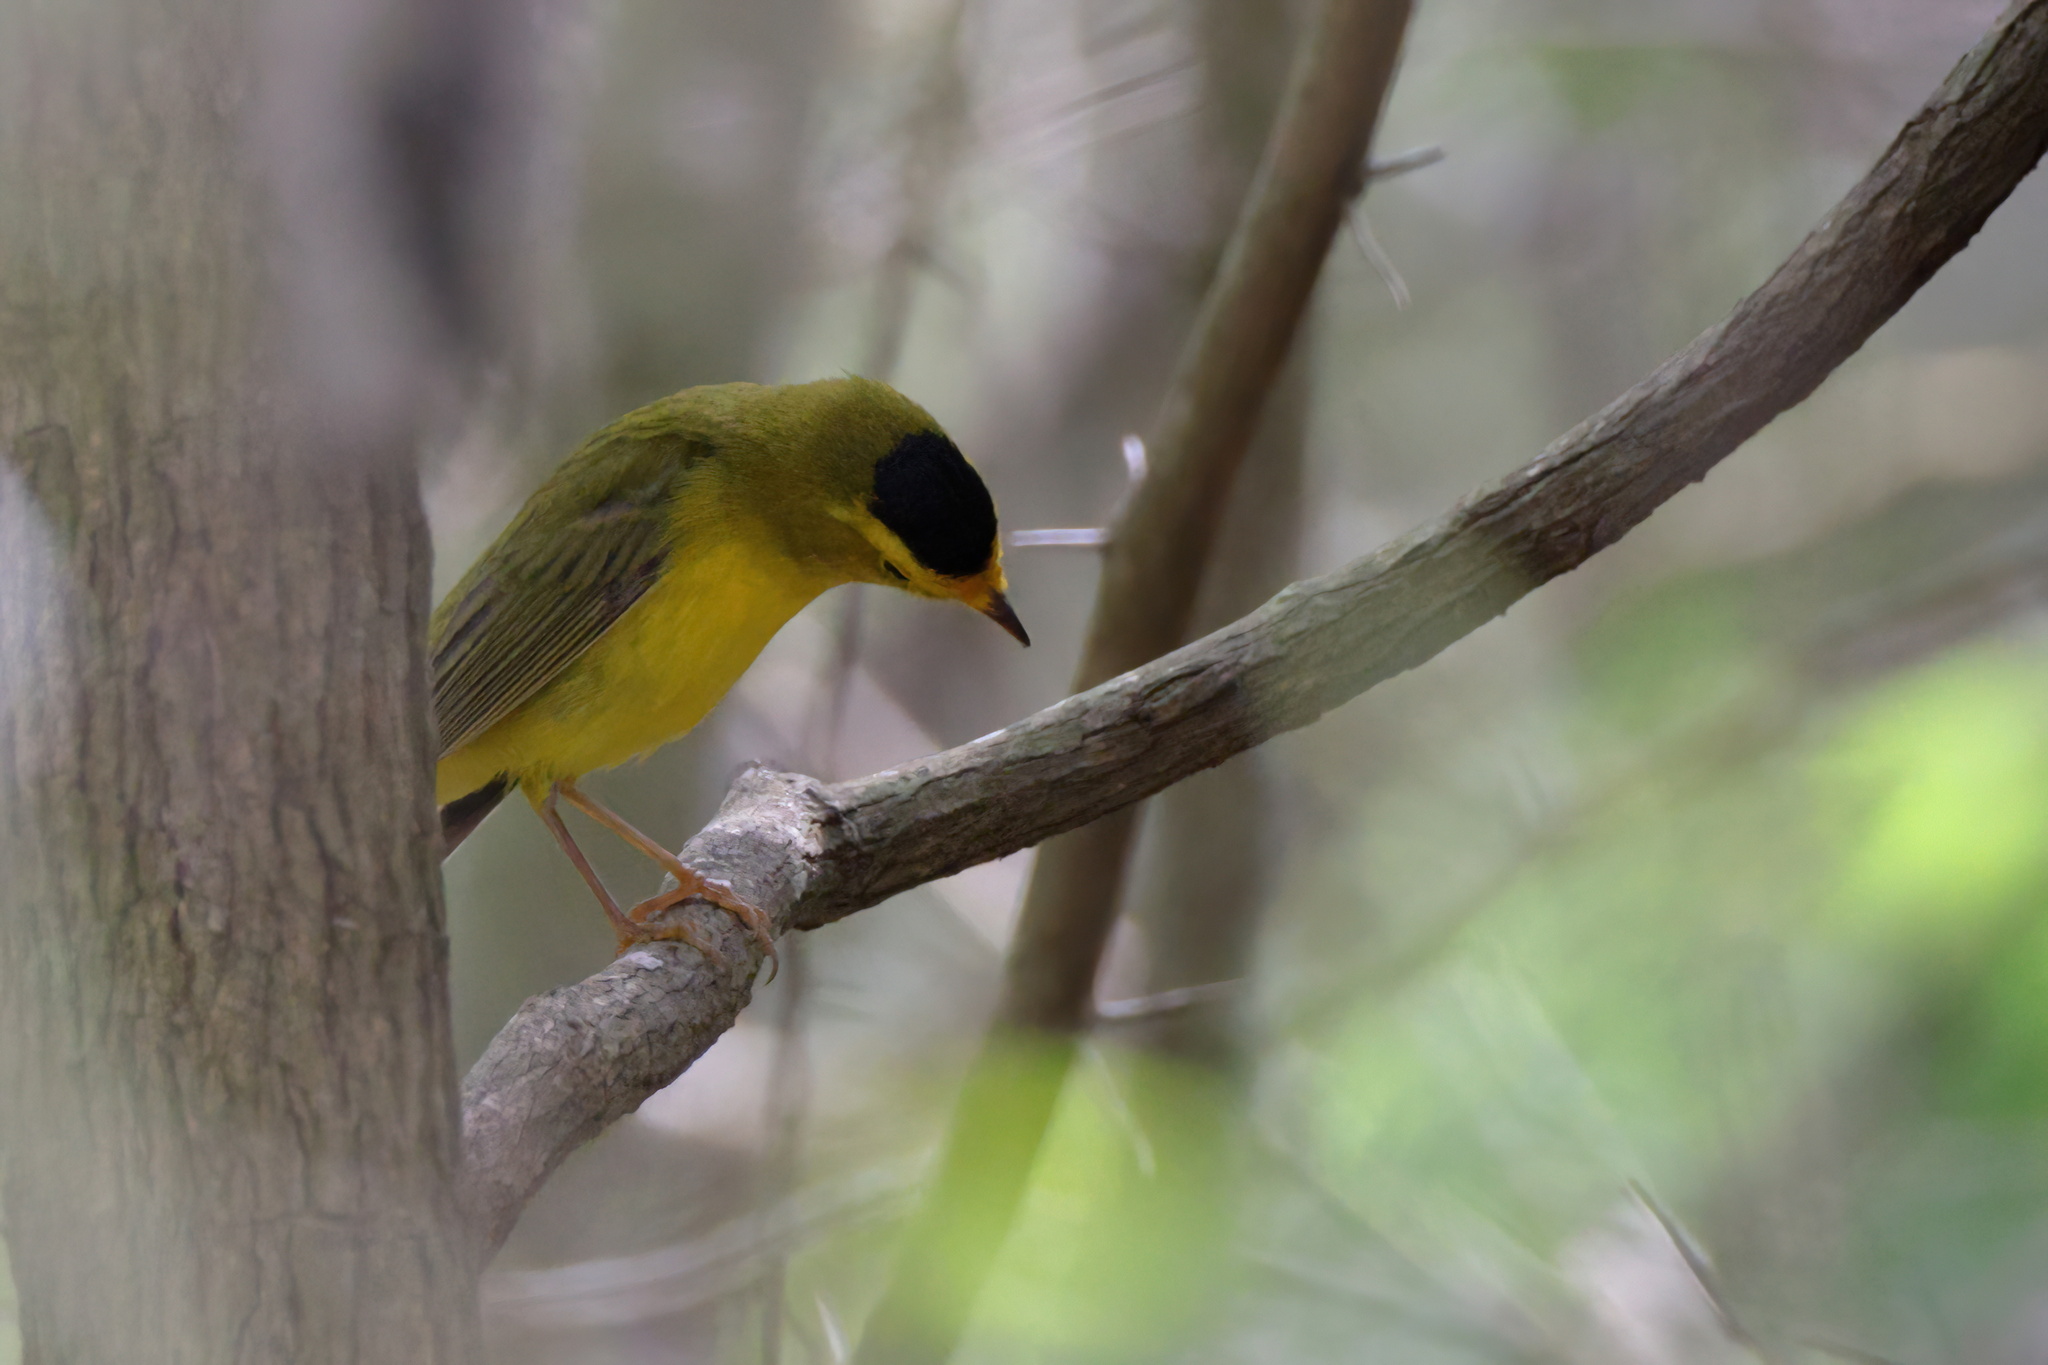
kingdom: Animalia
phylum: Chordata
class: Aves
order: Passeriformes
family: Parulidae
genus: Cardellina
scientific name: Cardellina pusilla
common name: Wilson's warbler
